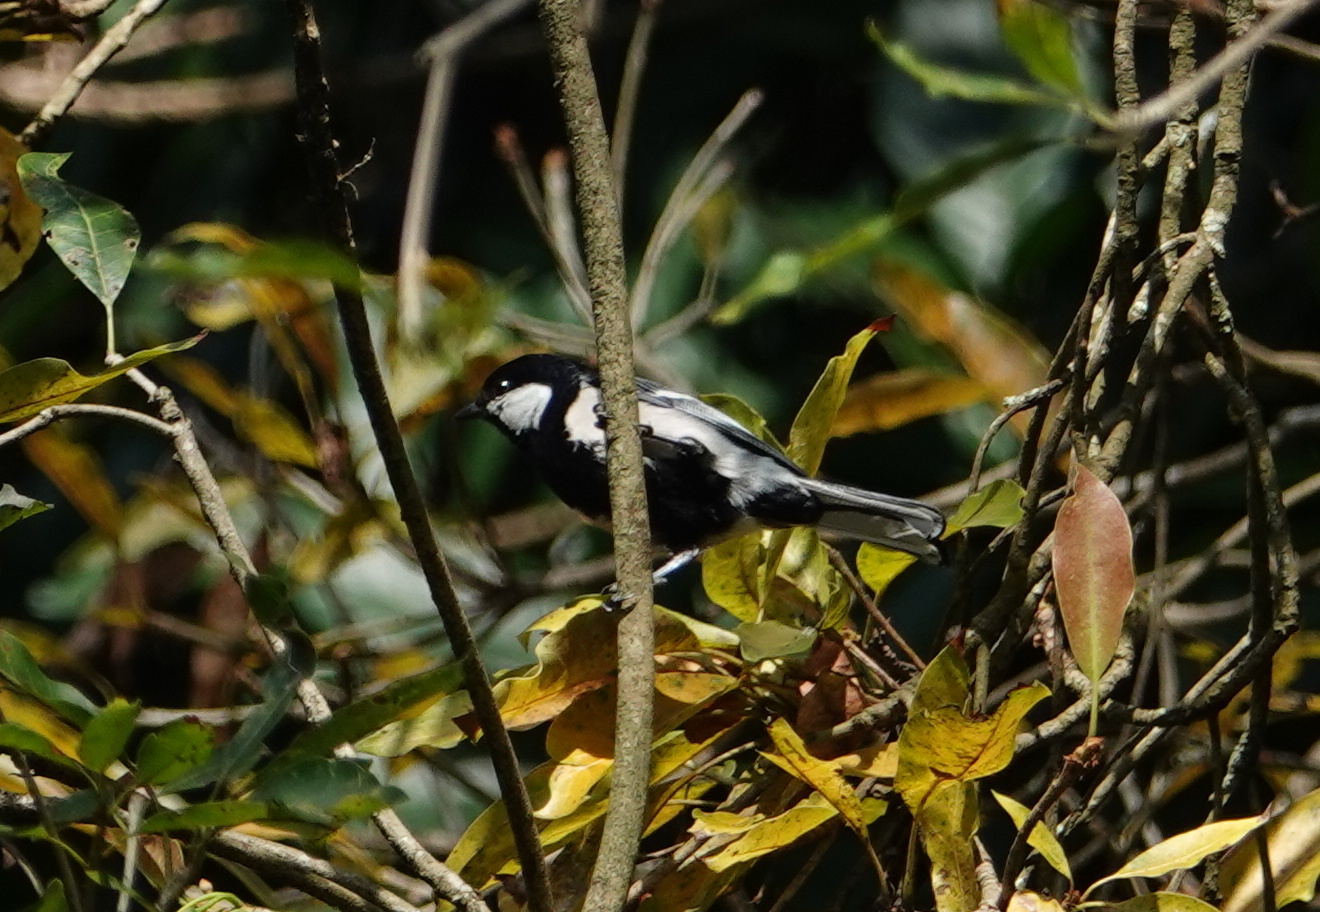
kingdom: Animalia
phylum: Chordata
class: Aves
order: Passeriformes
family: Paridae
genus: Parus
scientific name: Parus cinereus
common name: Cinereous tit
